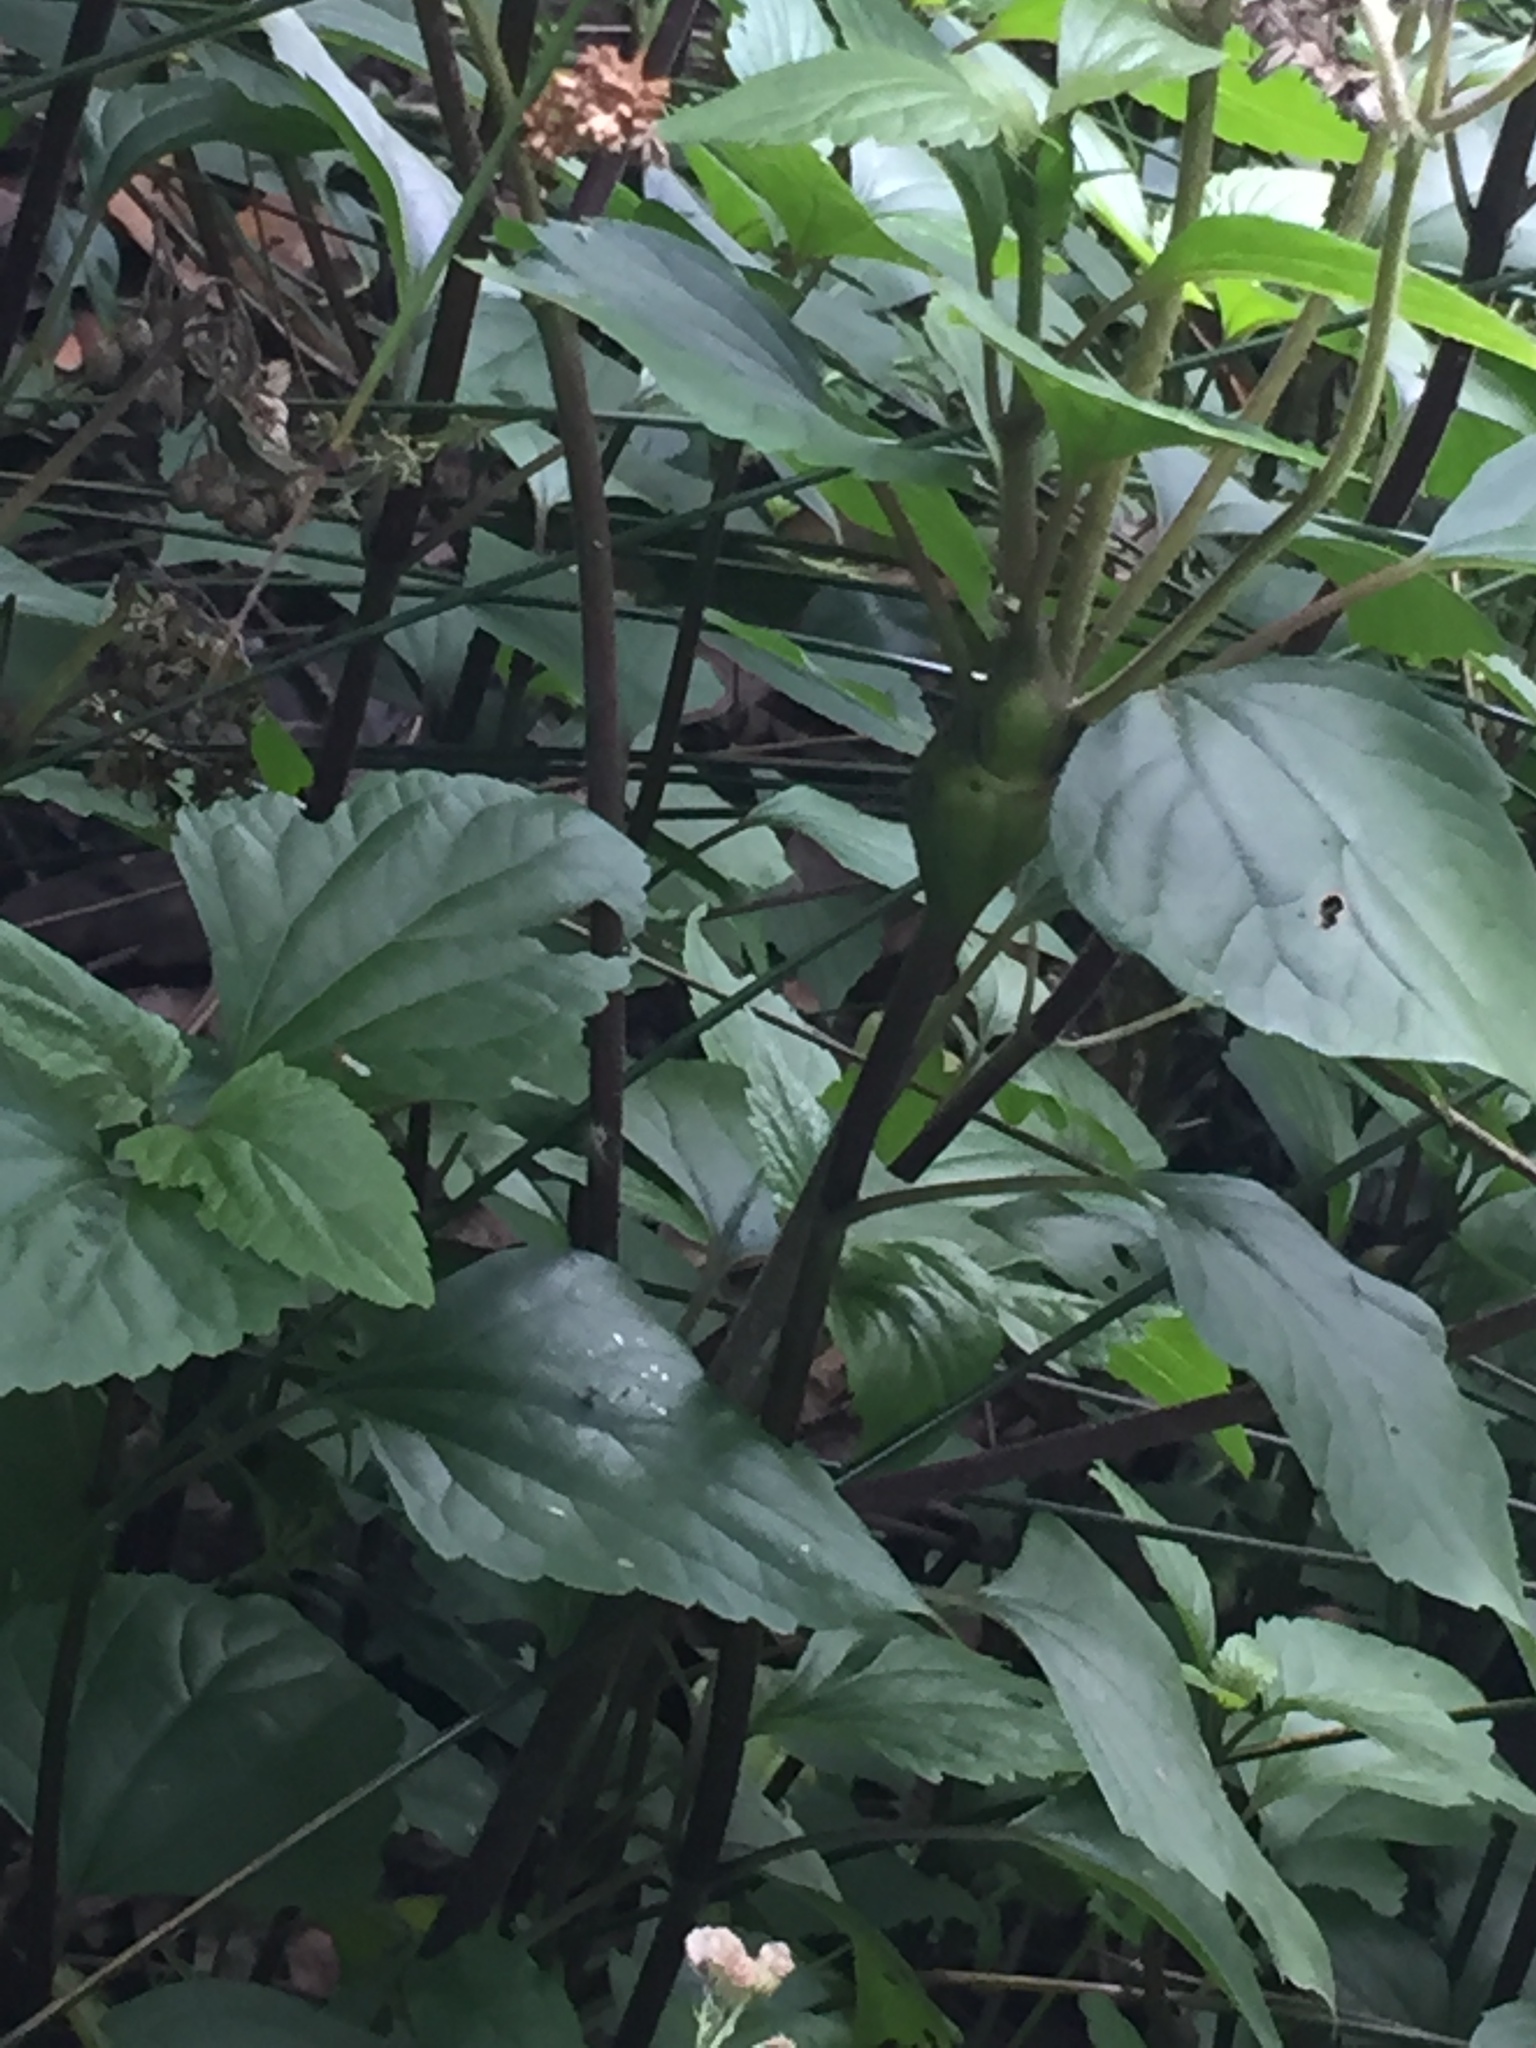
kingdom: Animalia
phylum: Arthropoda
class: Insecta
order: Diptera
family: Tephritidae
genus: Procecidochares
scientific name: Procecidochares utilis
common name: Eupatorium gall fly
